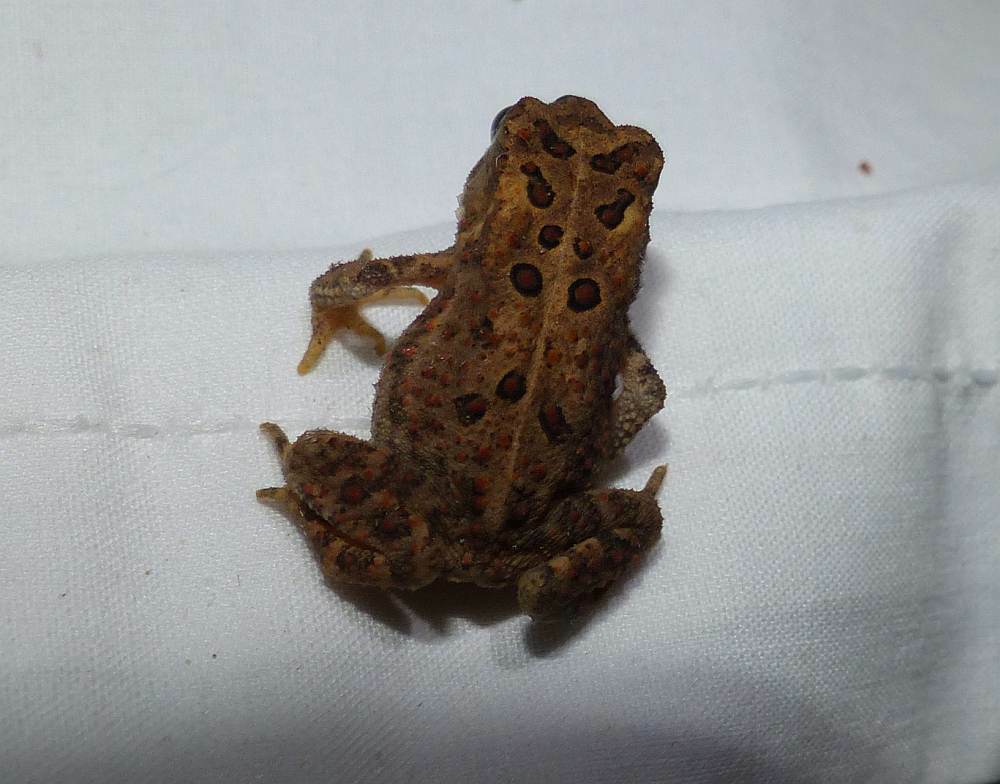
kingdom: Animalia
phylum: Chordata
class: Amphibia
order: Anura
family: Bufonidae
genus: Anaxyrus
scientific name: Anaxyrus americanus
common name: American toad
